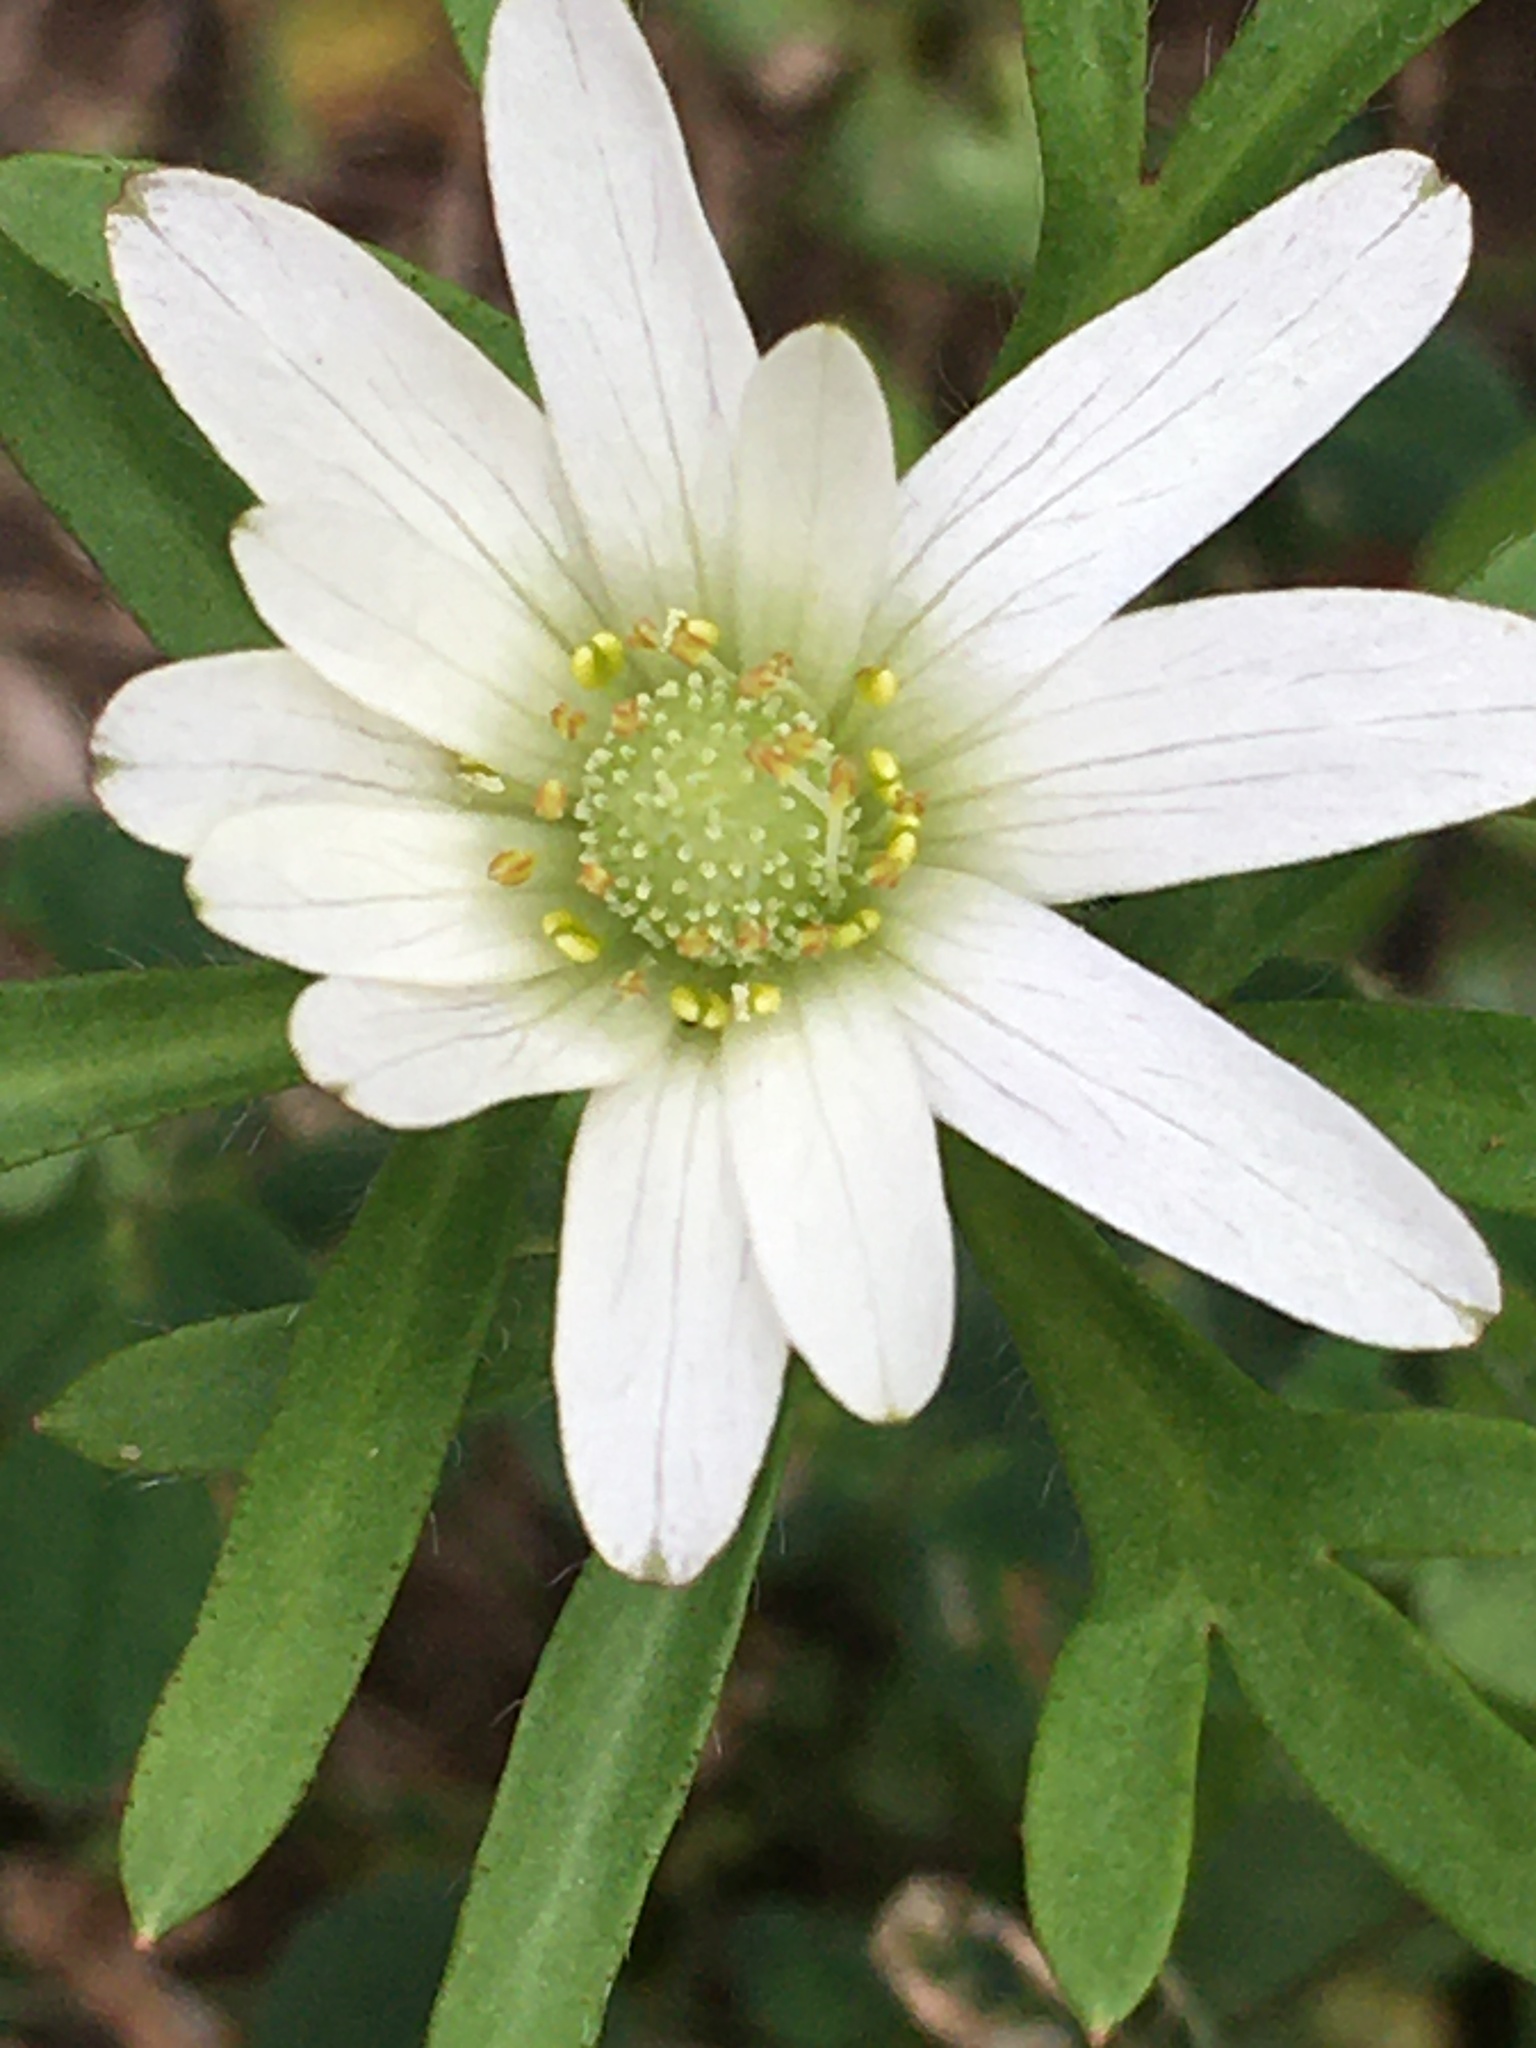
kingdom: Plantae
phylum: Tracheophyta
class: Magnoliopsida
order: Ranunculales
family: Ranunculaceae
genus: Anemone
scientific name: Anemone berlandieri
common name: Ten-petal anemone
